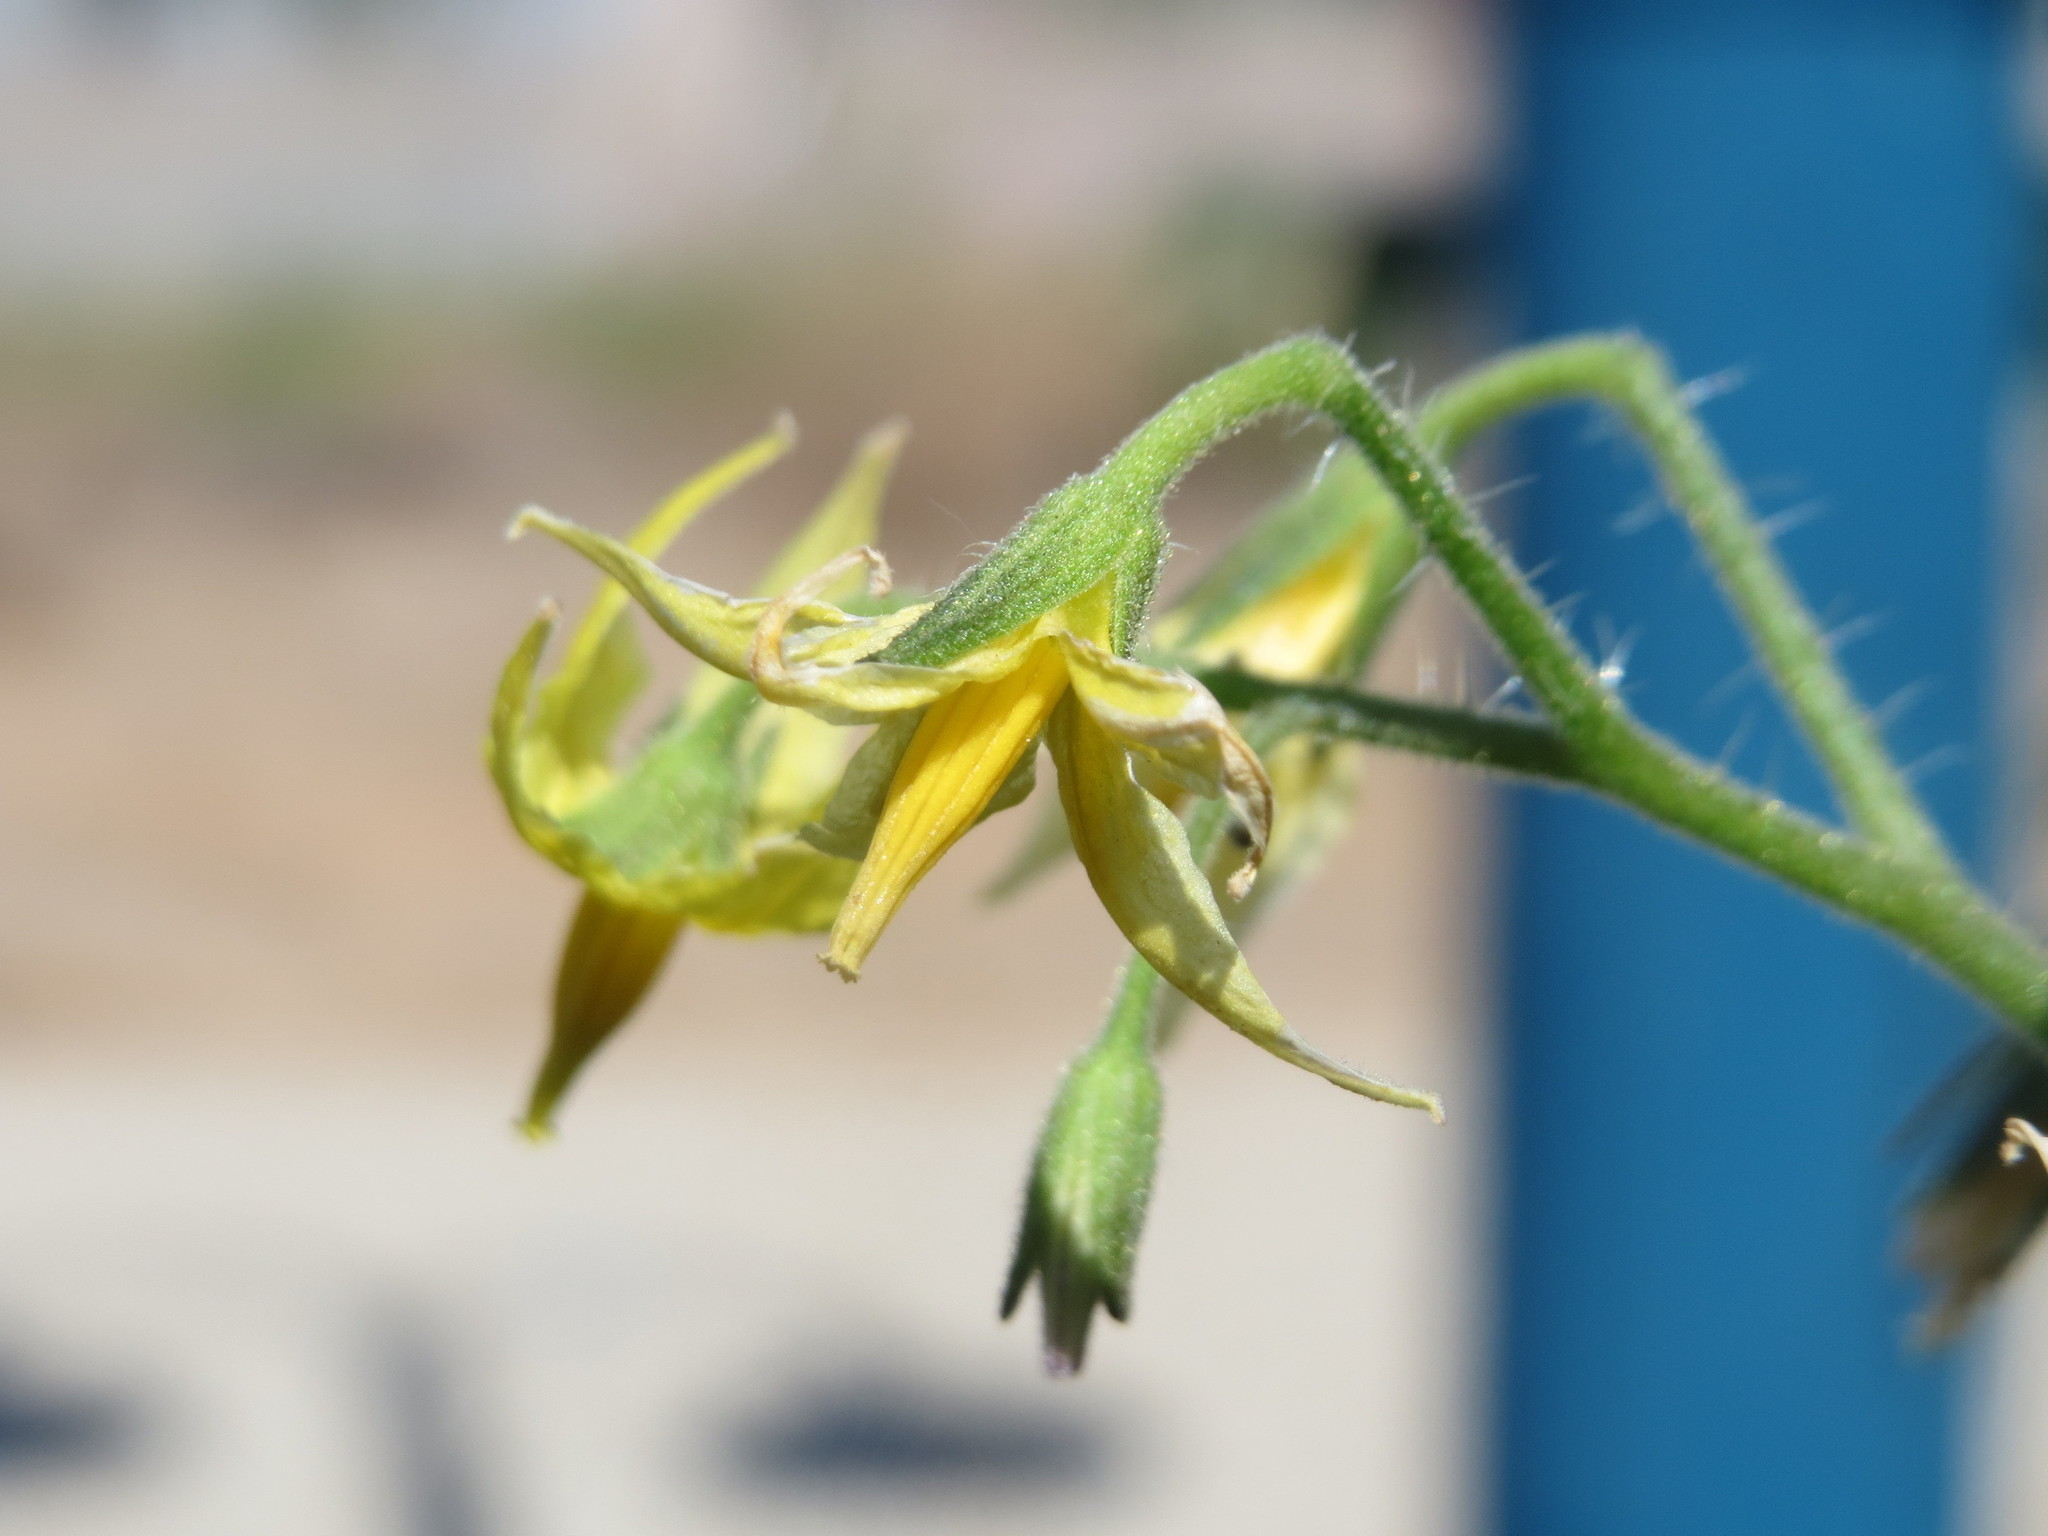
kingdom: Plantae
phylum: Tracheophyta
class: Magnoliopsida
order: Solanales
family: Solanaceae
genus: Solanum
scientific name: Solanum lycopersicum
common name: Garden tomato
